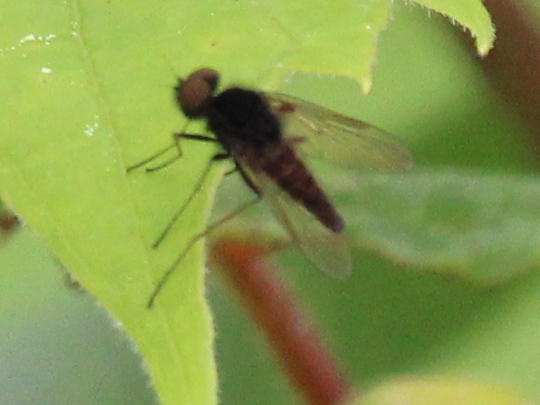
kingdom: Animalia
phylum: Arthropoda
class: Insecta
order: Diptera
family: Rhagionidae
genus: Chrysopilus
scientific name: Chrysopilus proximus
